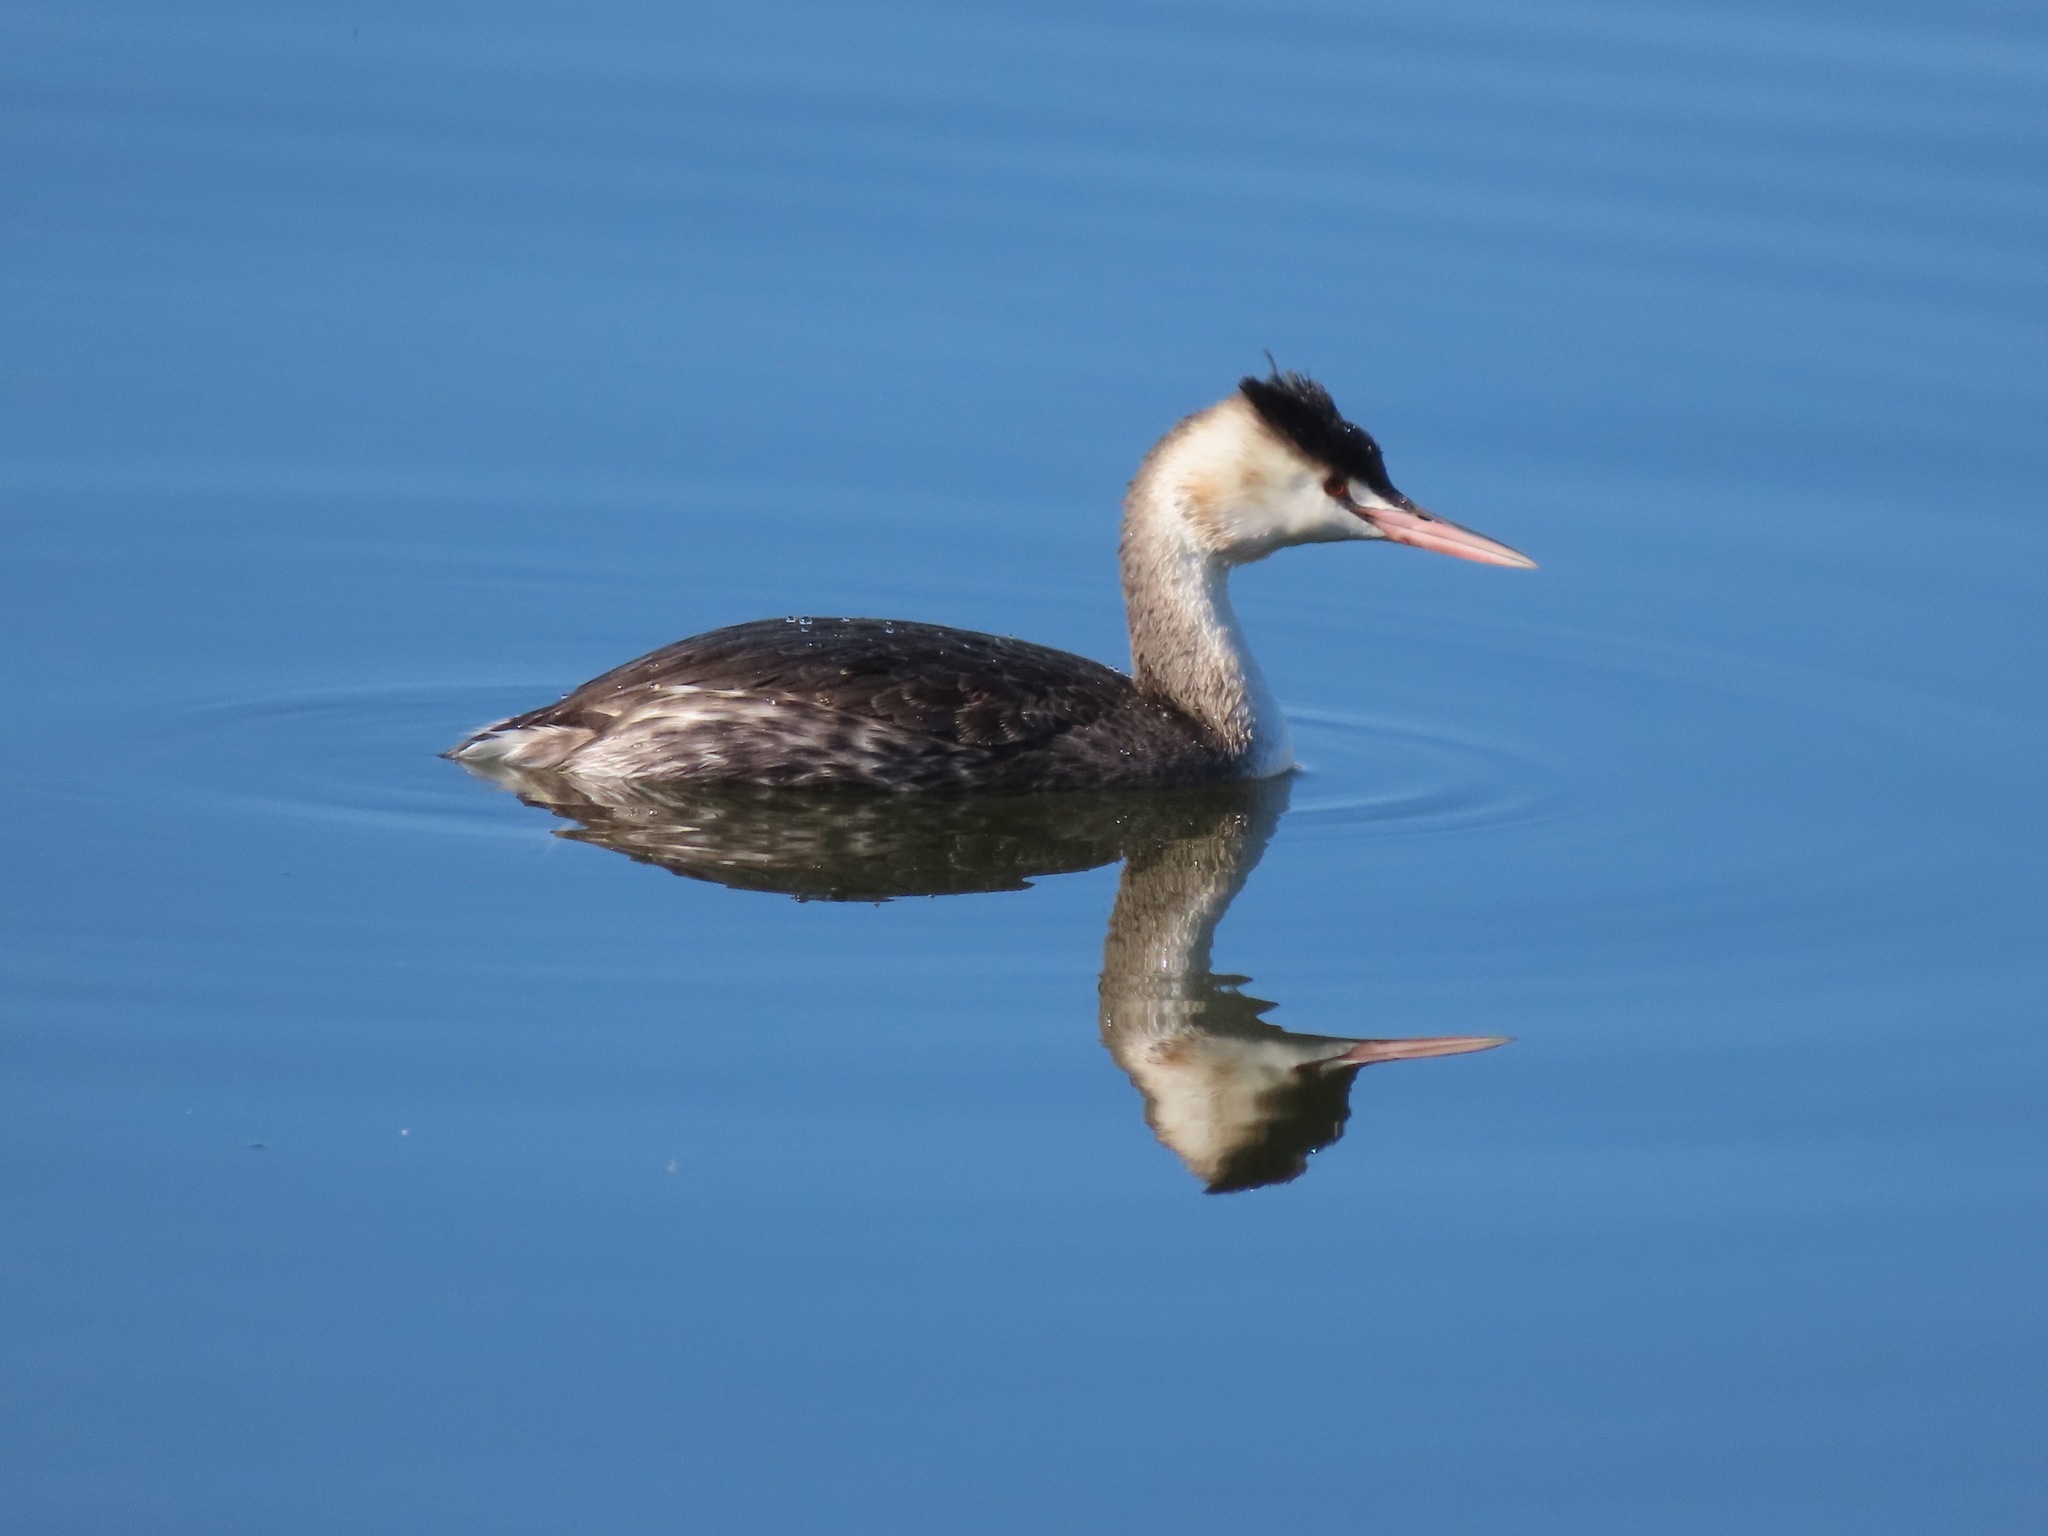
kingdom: Animalia
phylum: Chordata
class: Aves
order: Podicipediformes
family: Podicipedidae
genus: Podiceps
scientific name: Podiceps cristatus
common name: Great crested grebe
